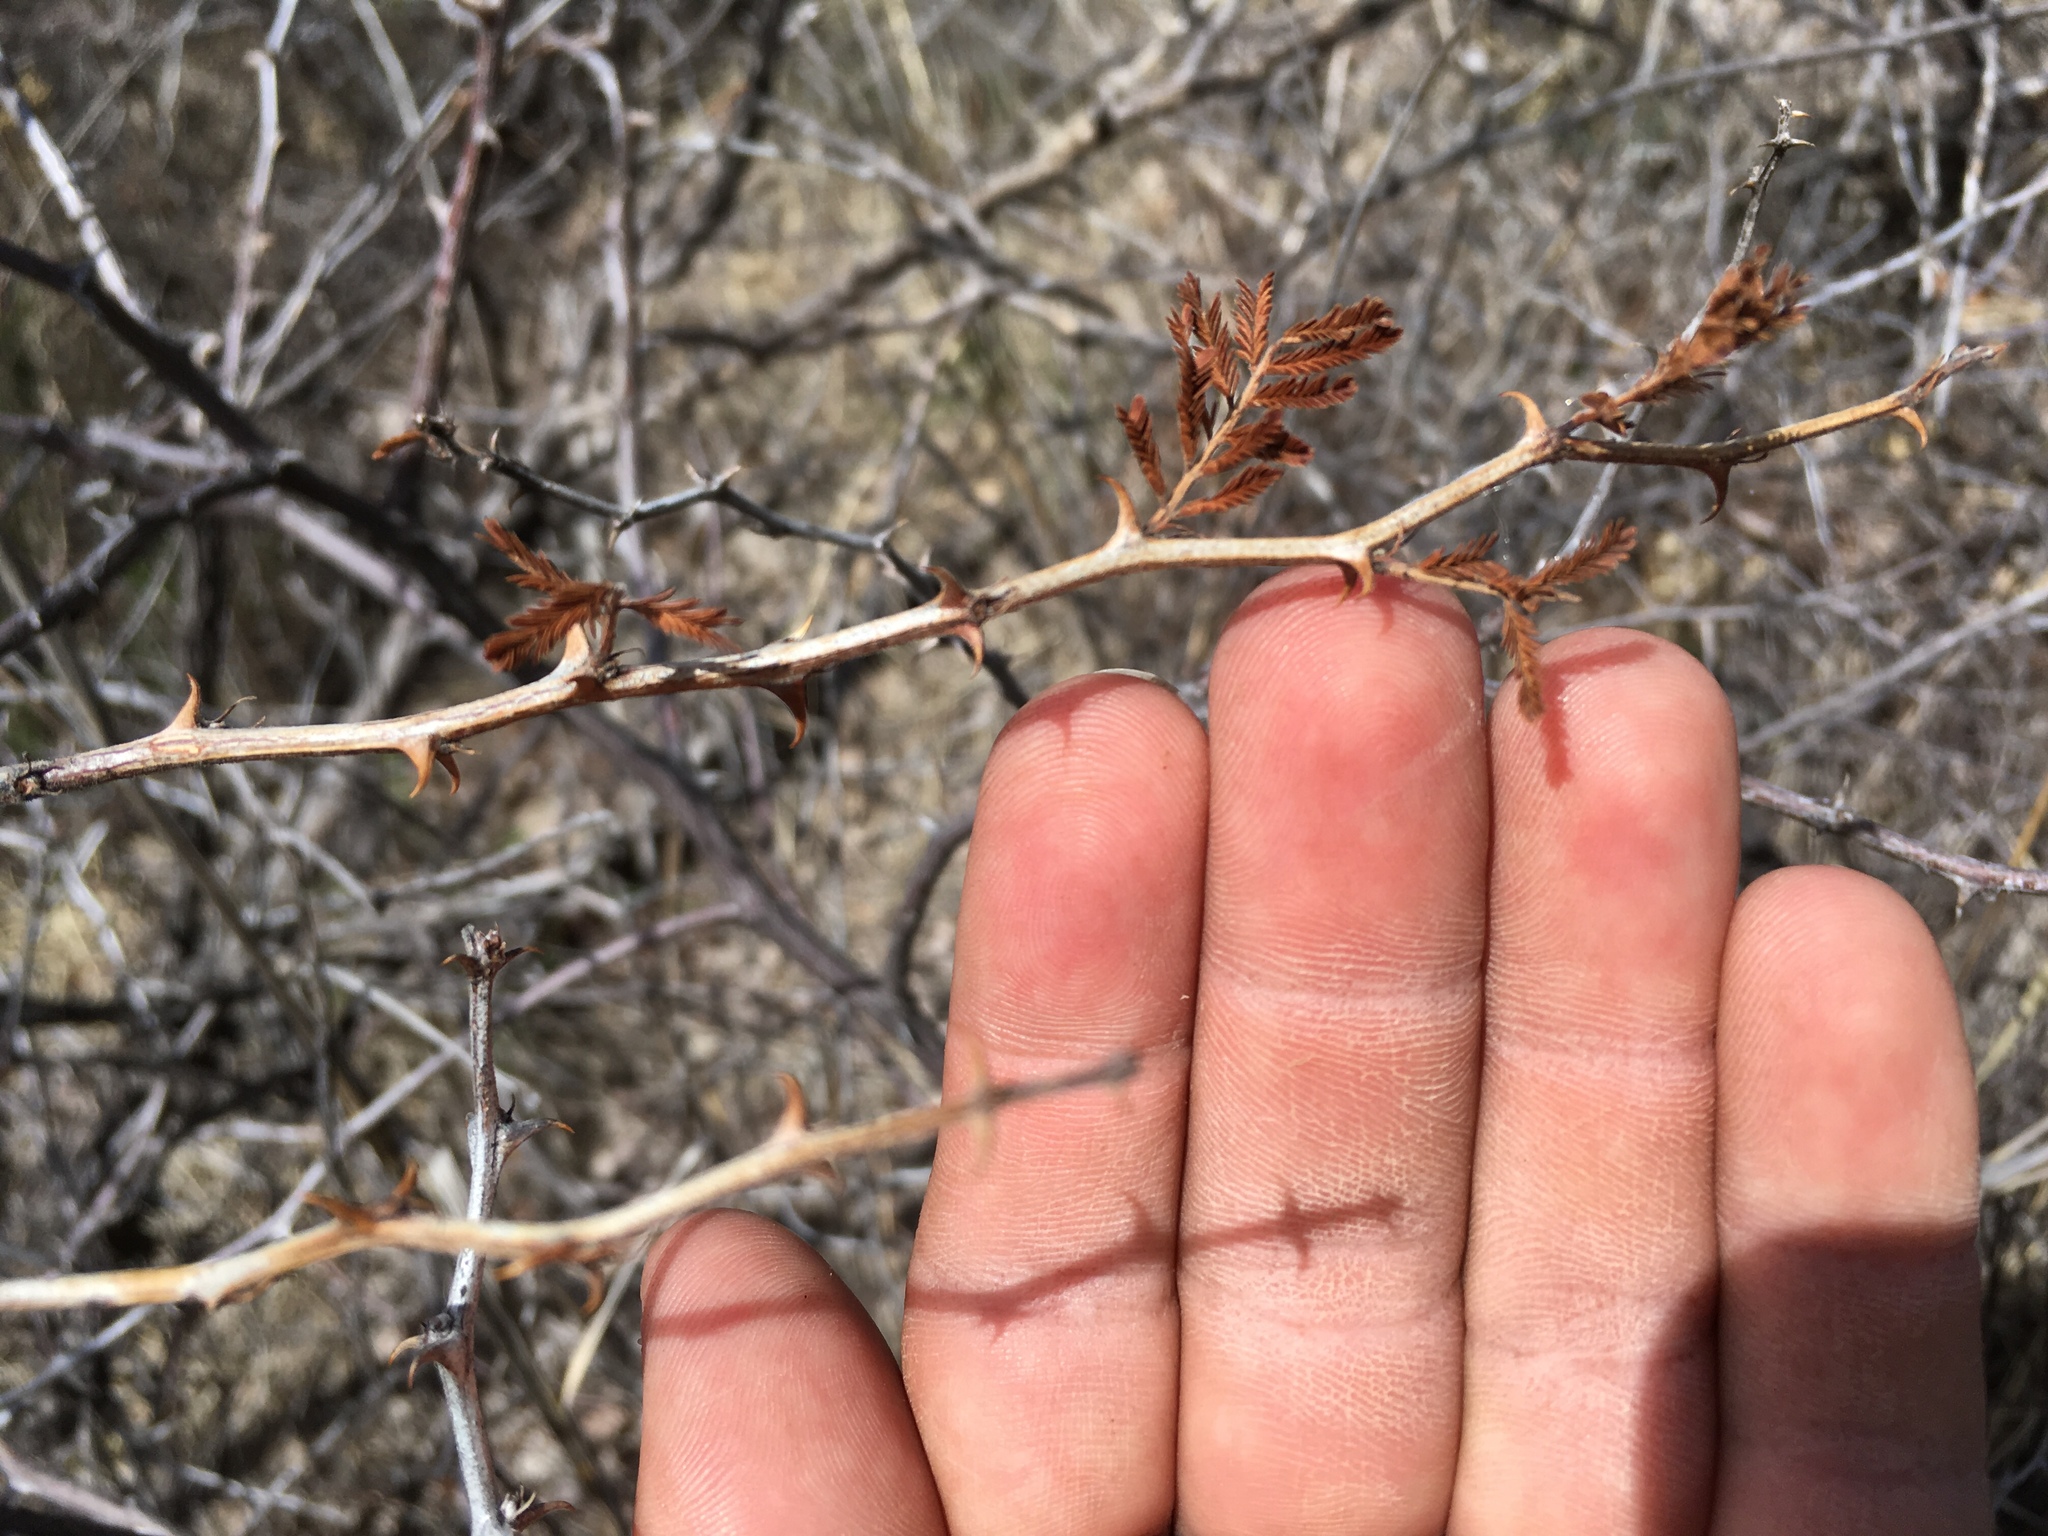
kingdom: Plantae
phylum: Tracheophyta
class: Magnoliopsida
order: Fabales
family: Fabaceae
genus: Mimosa
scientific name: Mimosa biuncifera
